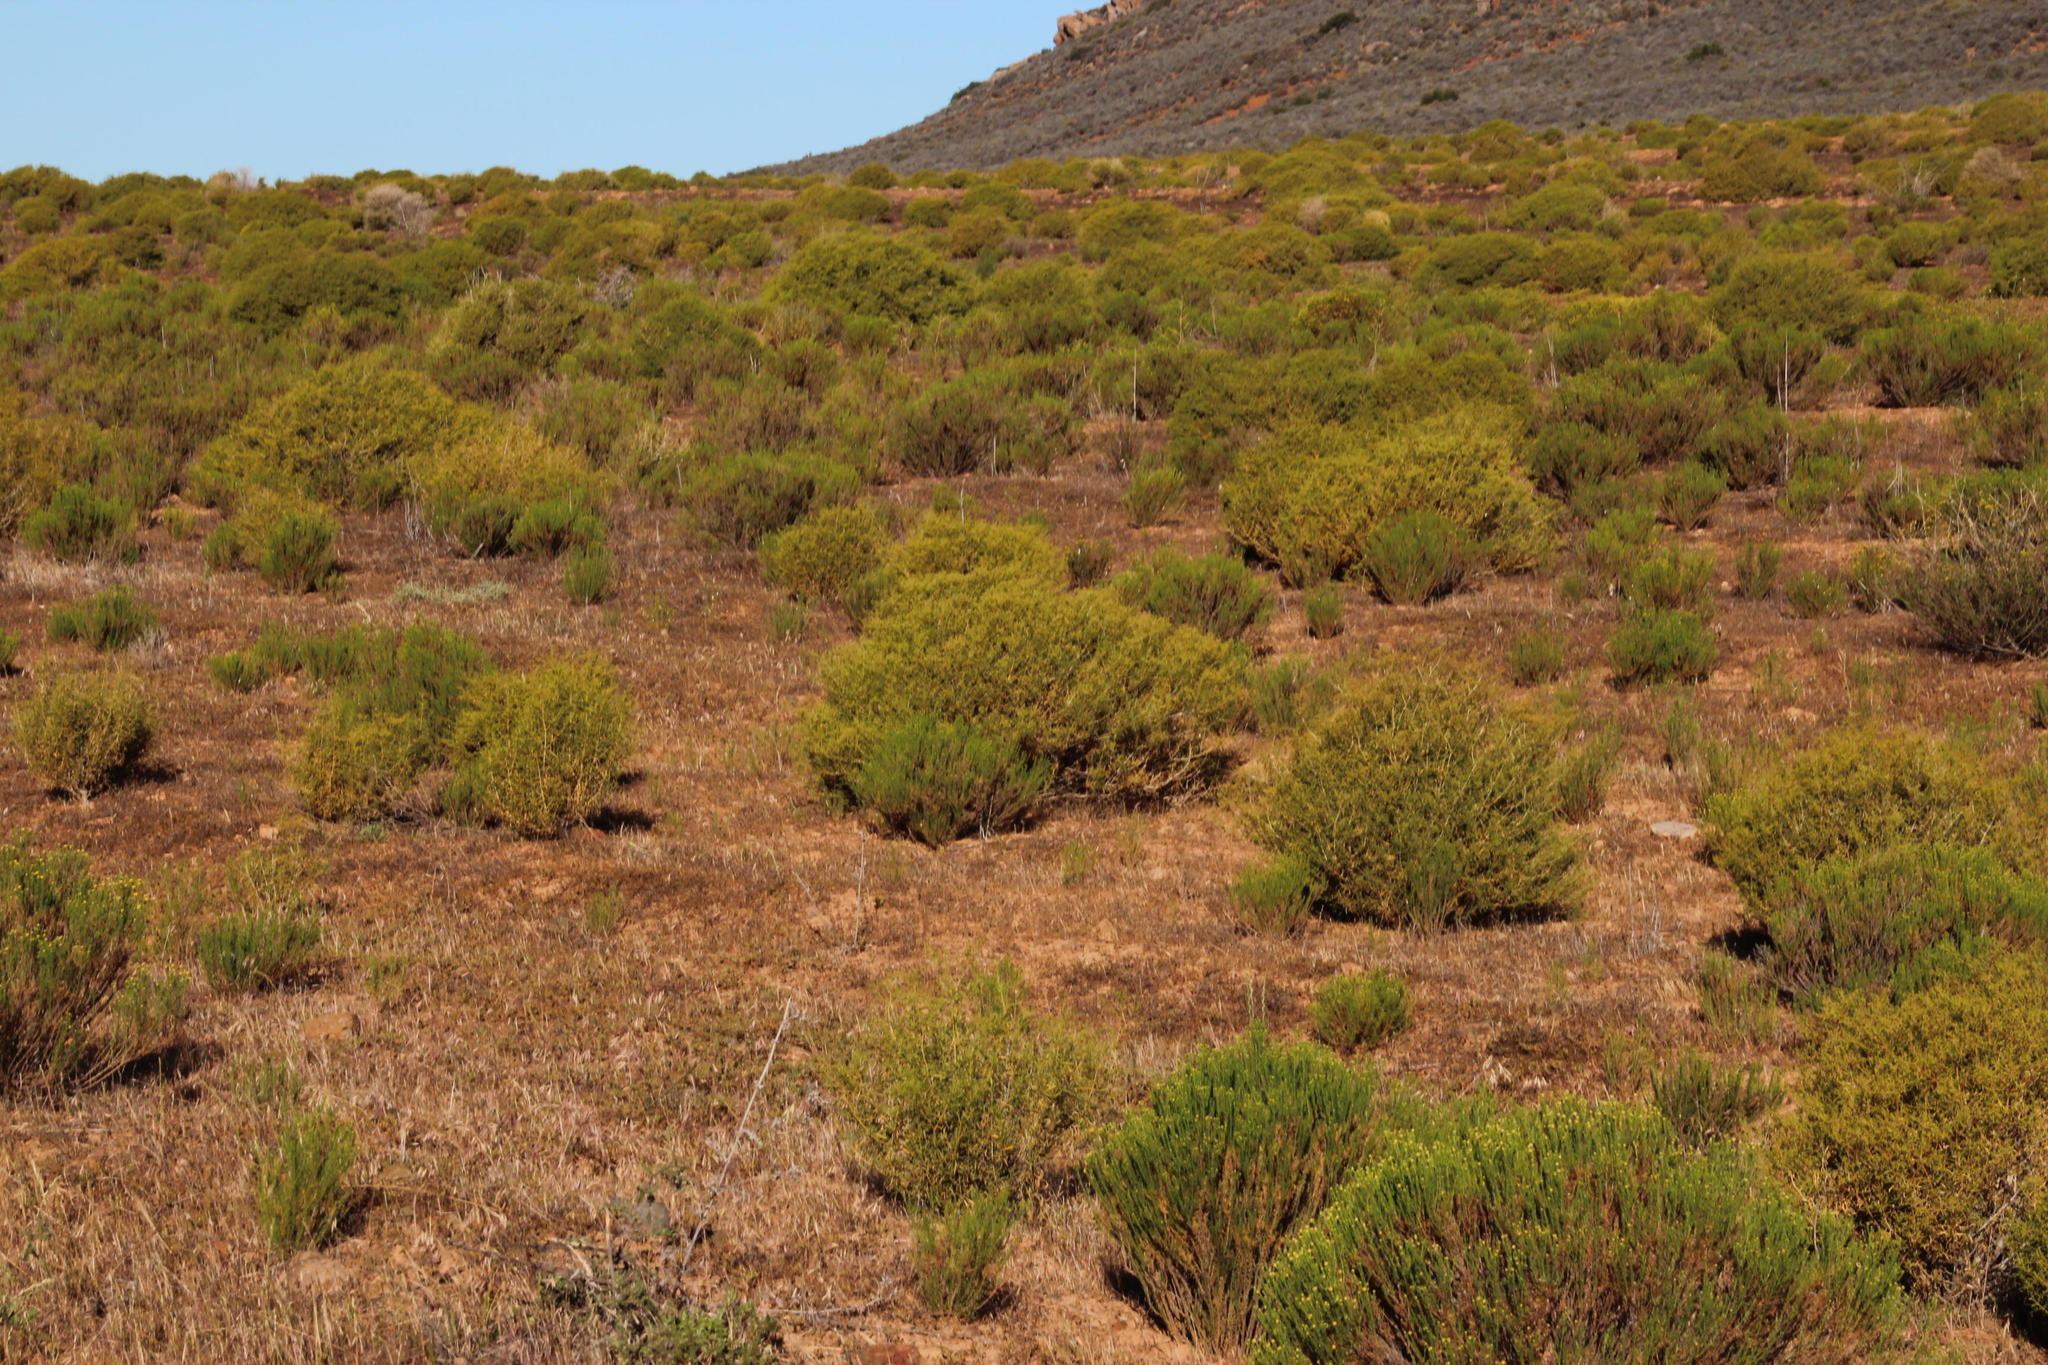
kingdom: Plantae
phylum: Tracheophyta
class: Magnoliopsida
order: Caryophyllales
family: Aizoaceae
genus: Aizoon
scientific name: Aizoon africanum
